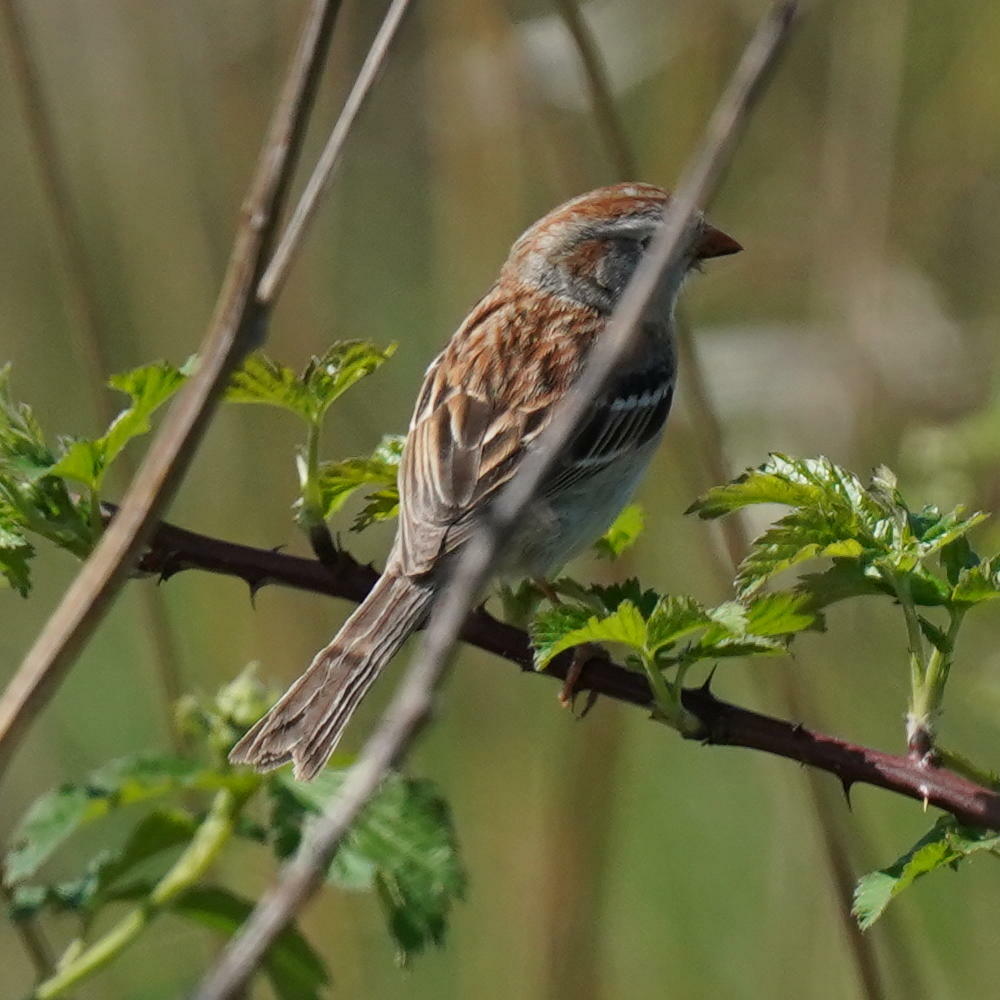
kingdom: Animalia
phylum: Chordata
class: Aves
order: Passeriformes
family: Passerellidae
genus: Spizella
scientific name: Spizella pusilla
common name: Field sparrow
